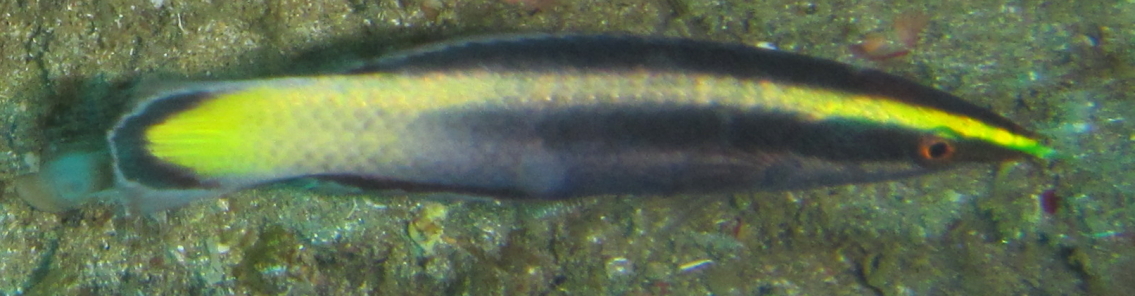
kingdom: Animalia
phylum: Chordata
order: Perciformes
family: Labridae
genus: Labroides
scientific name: Labroides bicolor
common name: Bicolor cleaner wrasse
